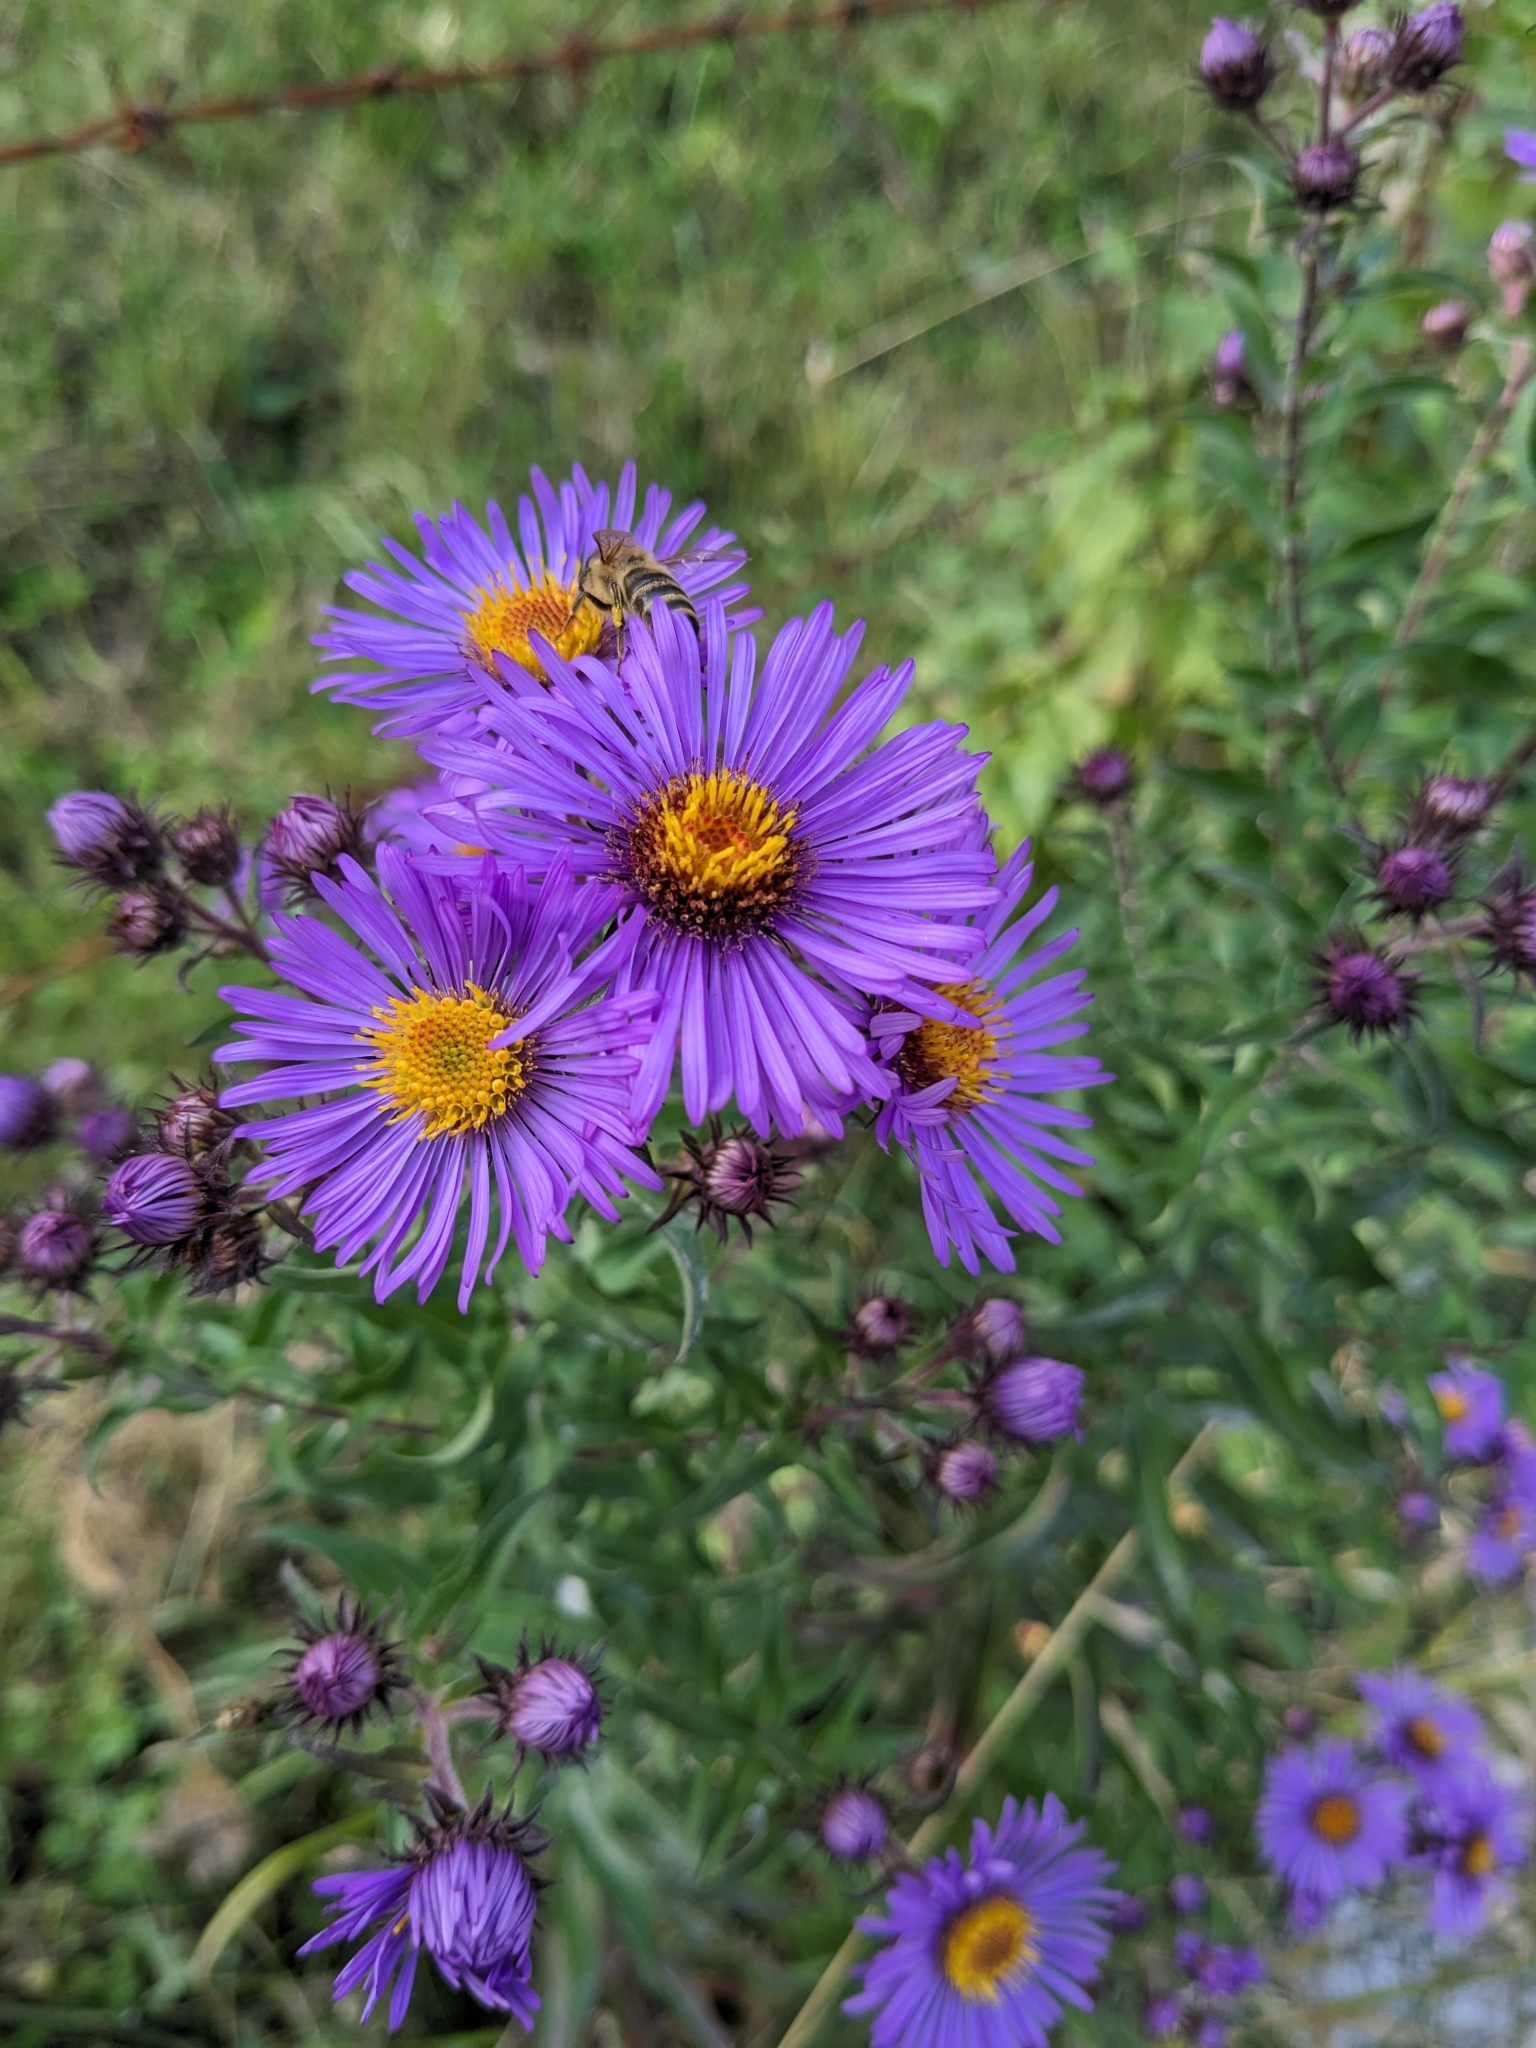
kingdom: Plantae
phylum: Tracheophyta
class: Magnoliopsida
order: Asterales
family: Asteraceae
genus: Aster
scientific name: Aster amellus
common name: European michaelmas daisy
